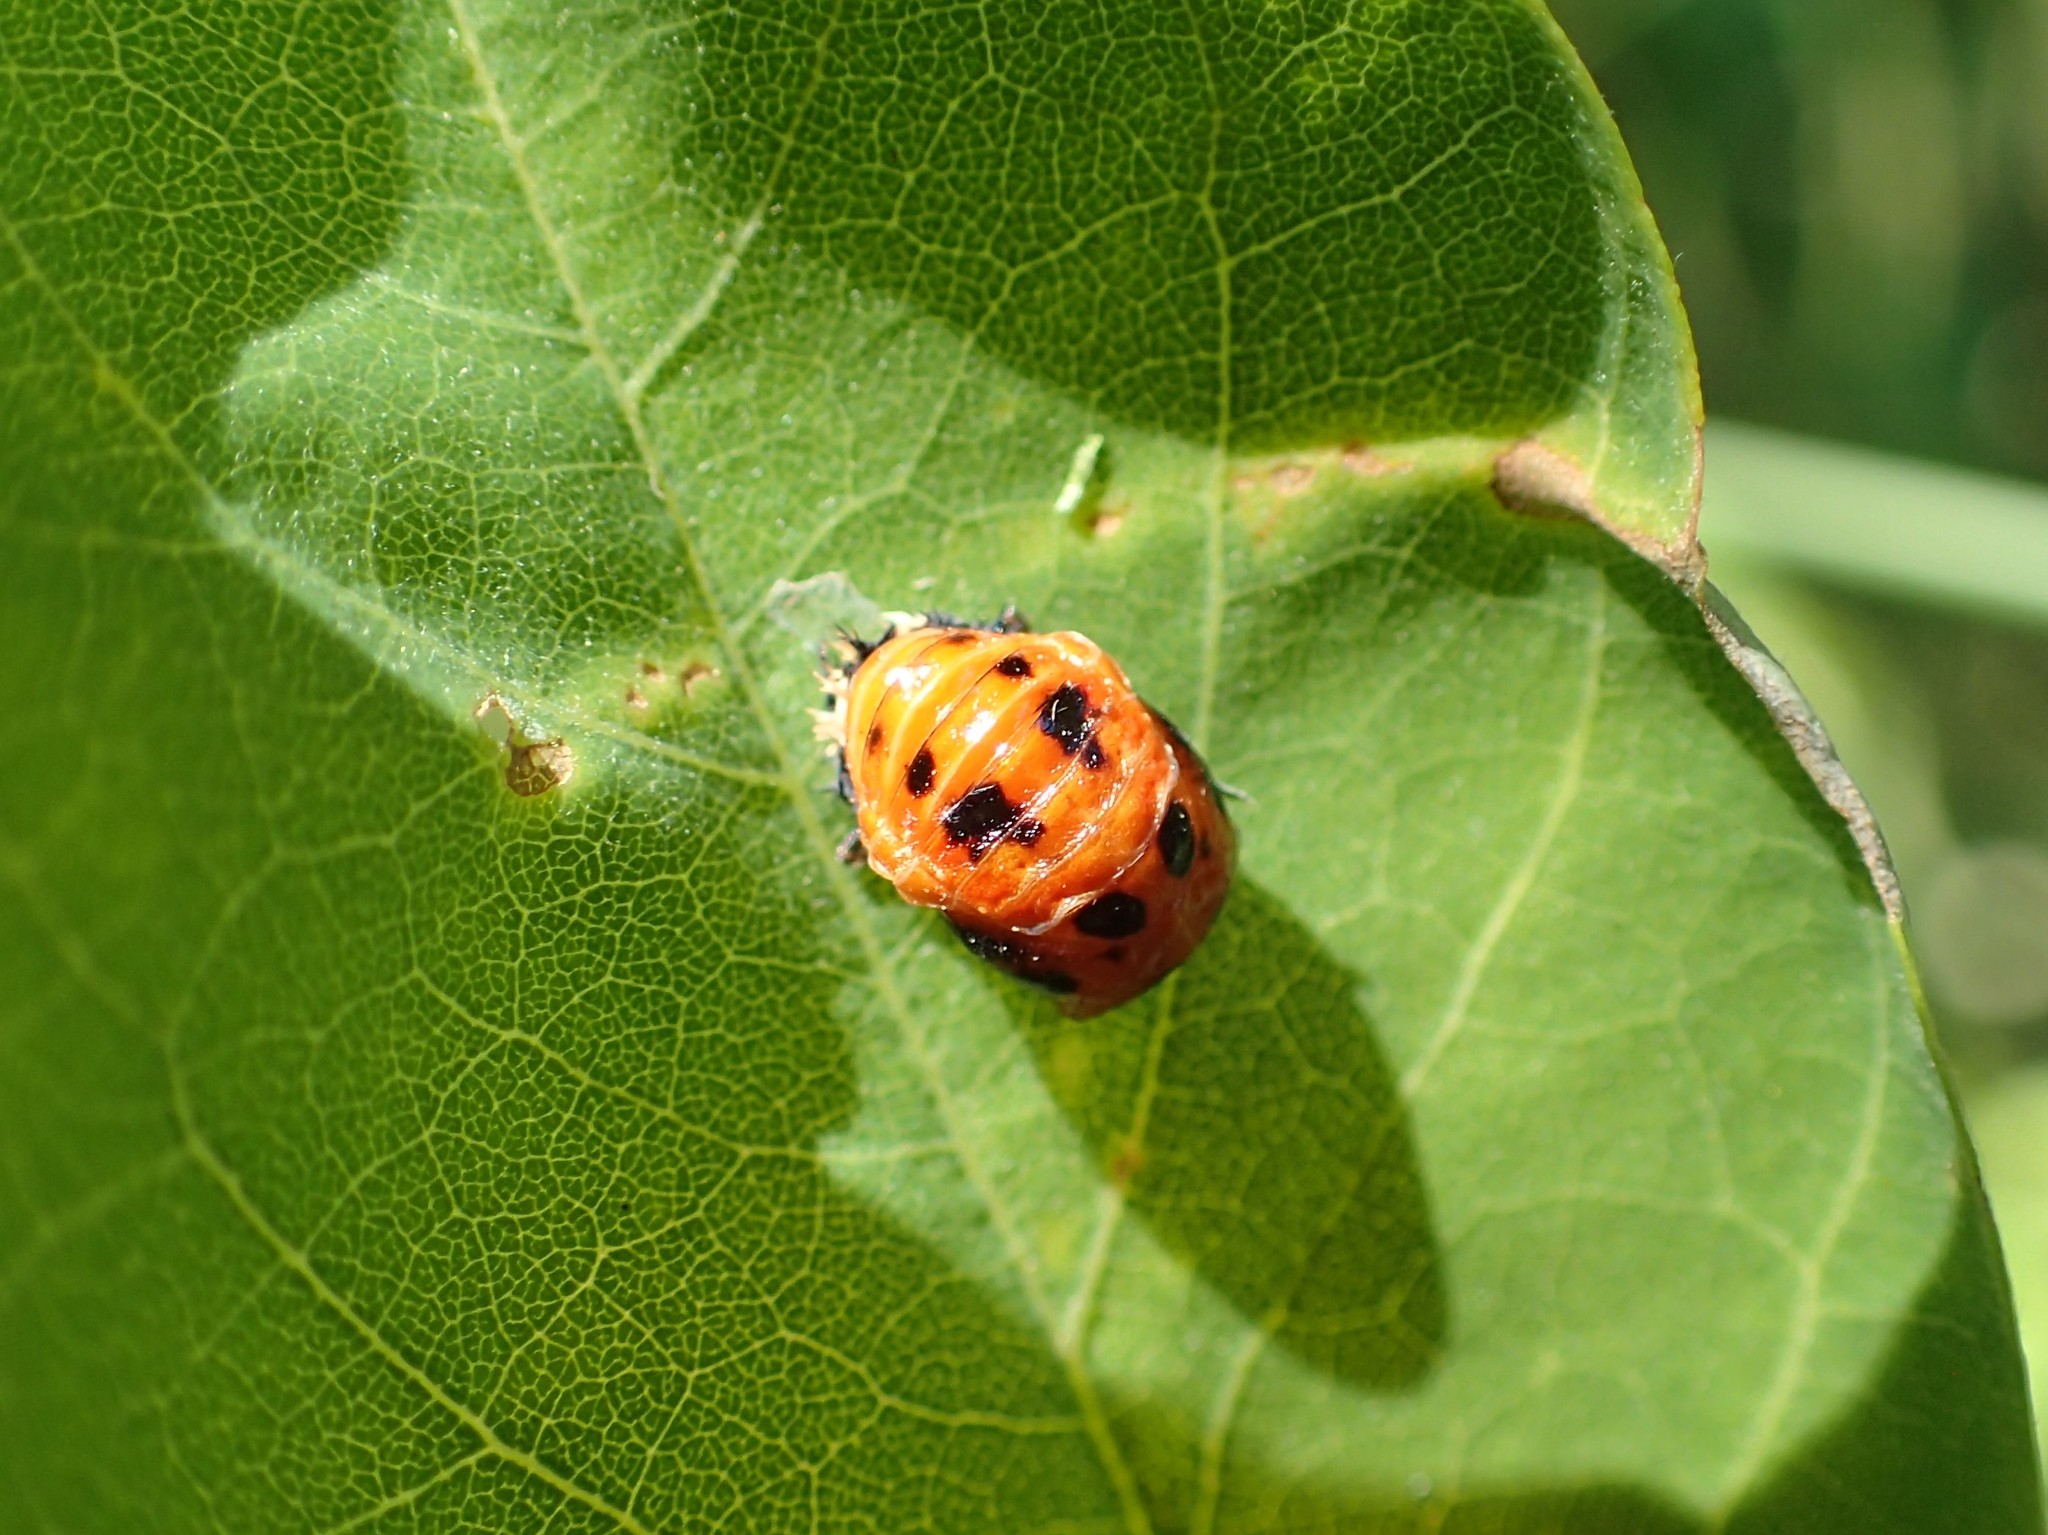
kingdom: Animalia
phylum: Arthropoda
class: Insecta
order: Coleoptera
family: Coccinellidae
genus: Harmonia
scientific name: Harmonia axyridis
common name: Harlequin ladybird
